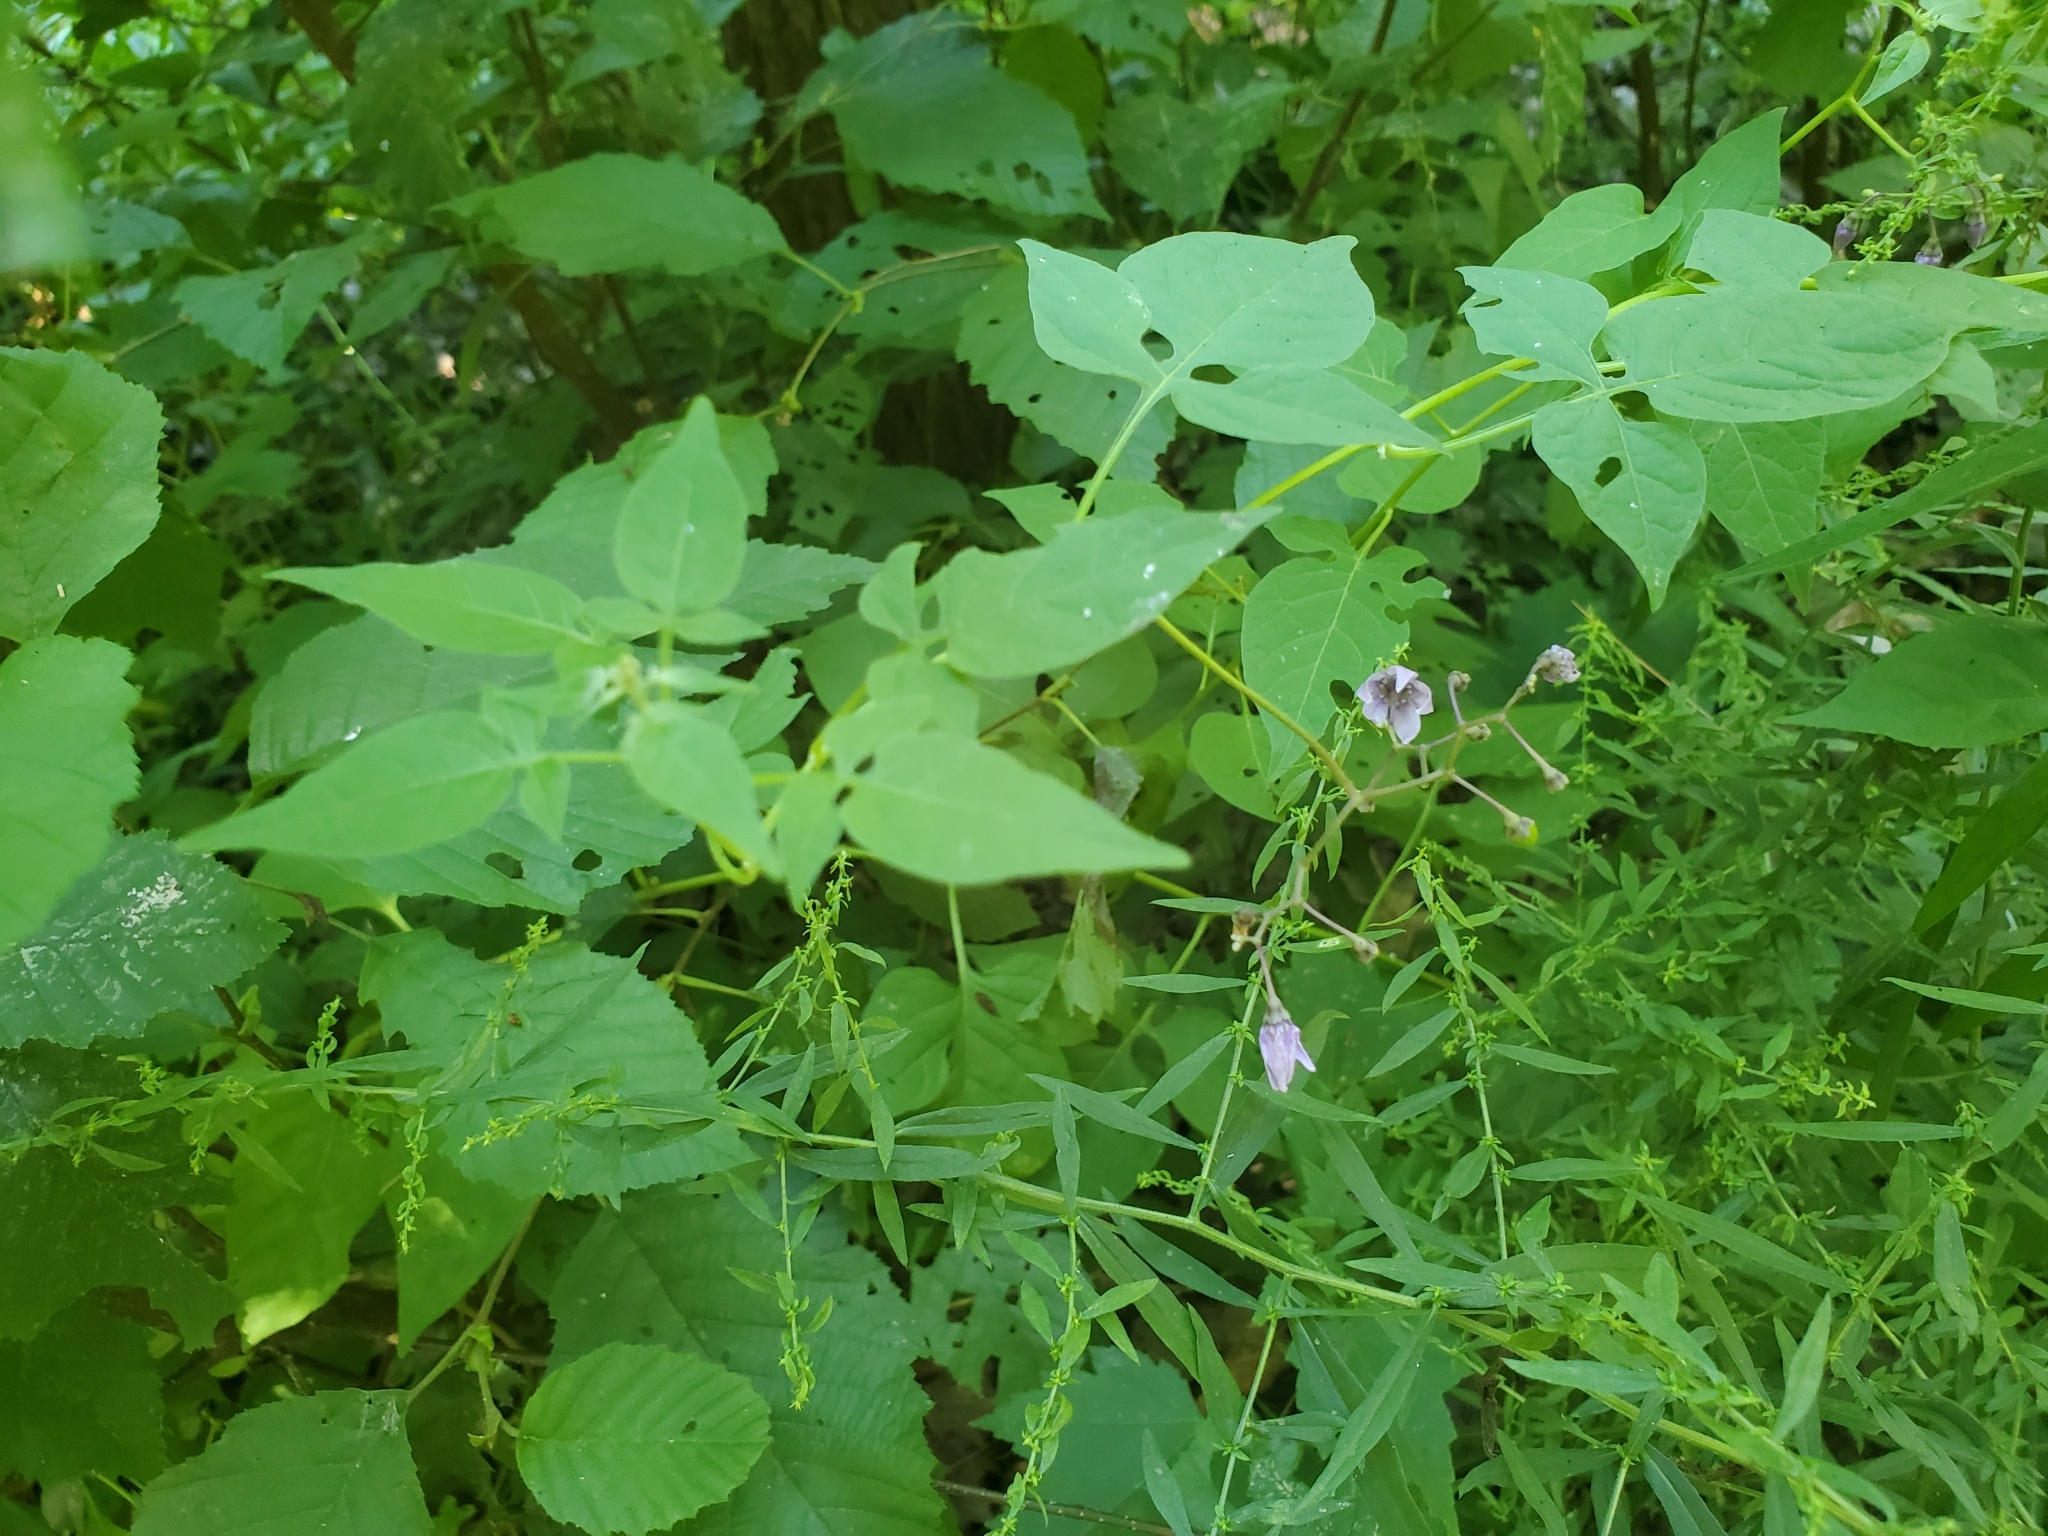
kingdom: Plantae
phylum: Tracheophyta
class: Magnoliopsida
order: Solanales
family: Solanaceae
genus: Solanum
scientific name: Solanum dulcamara
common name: Climbing nightshade
